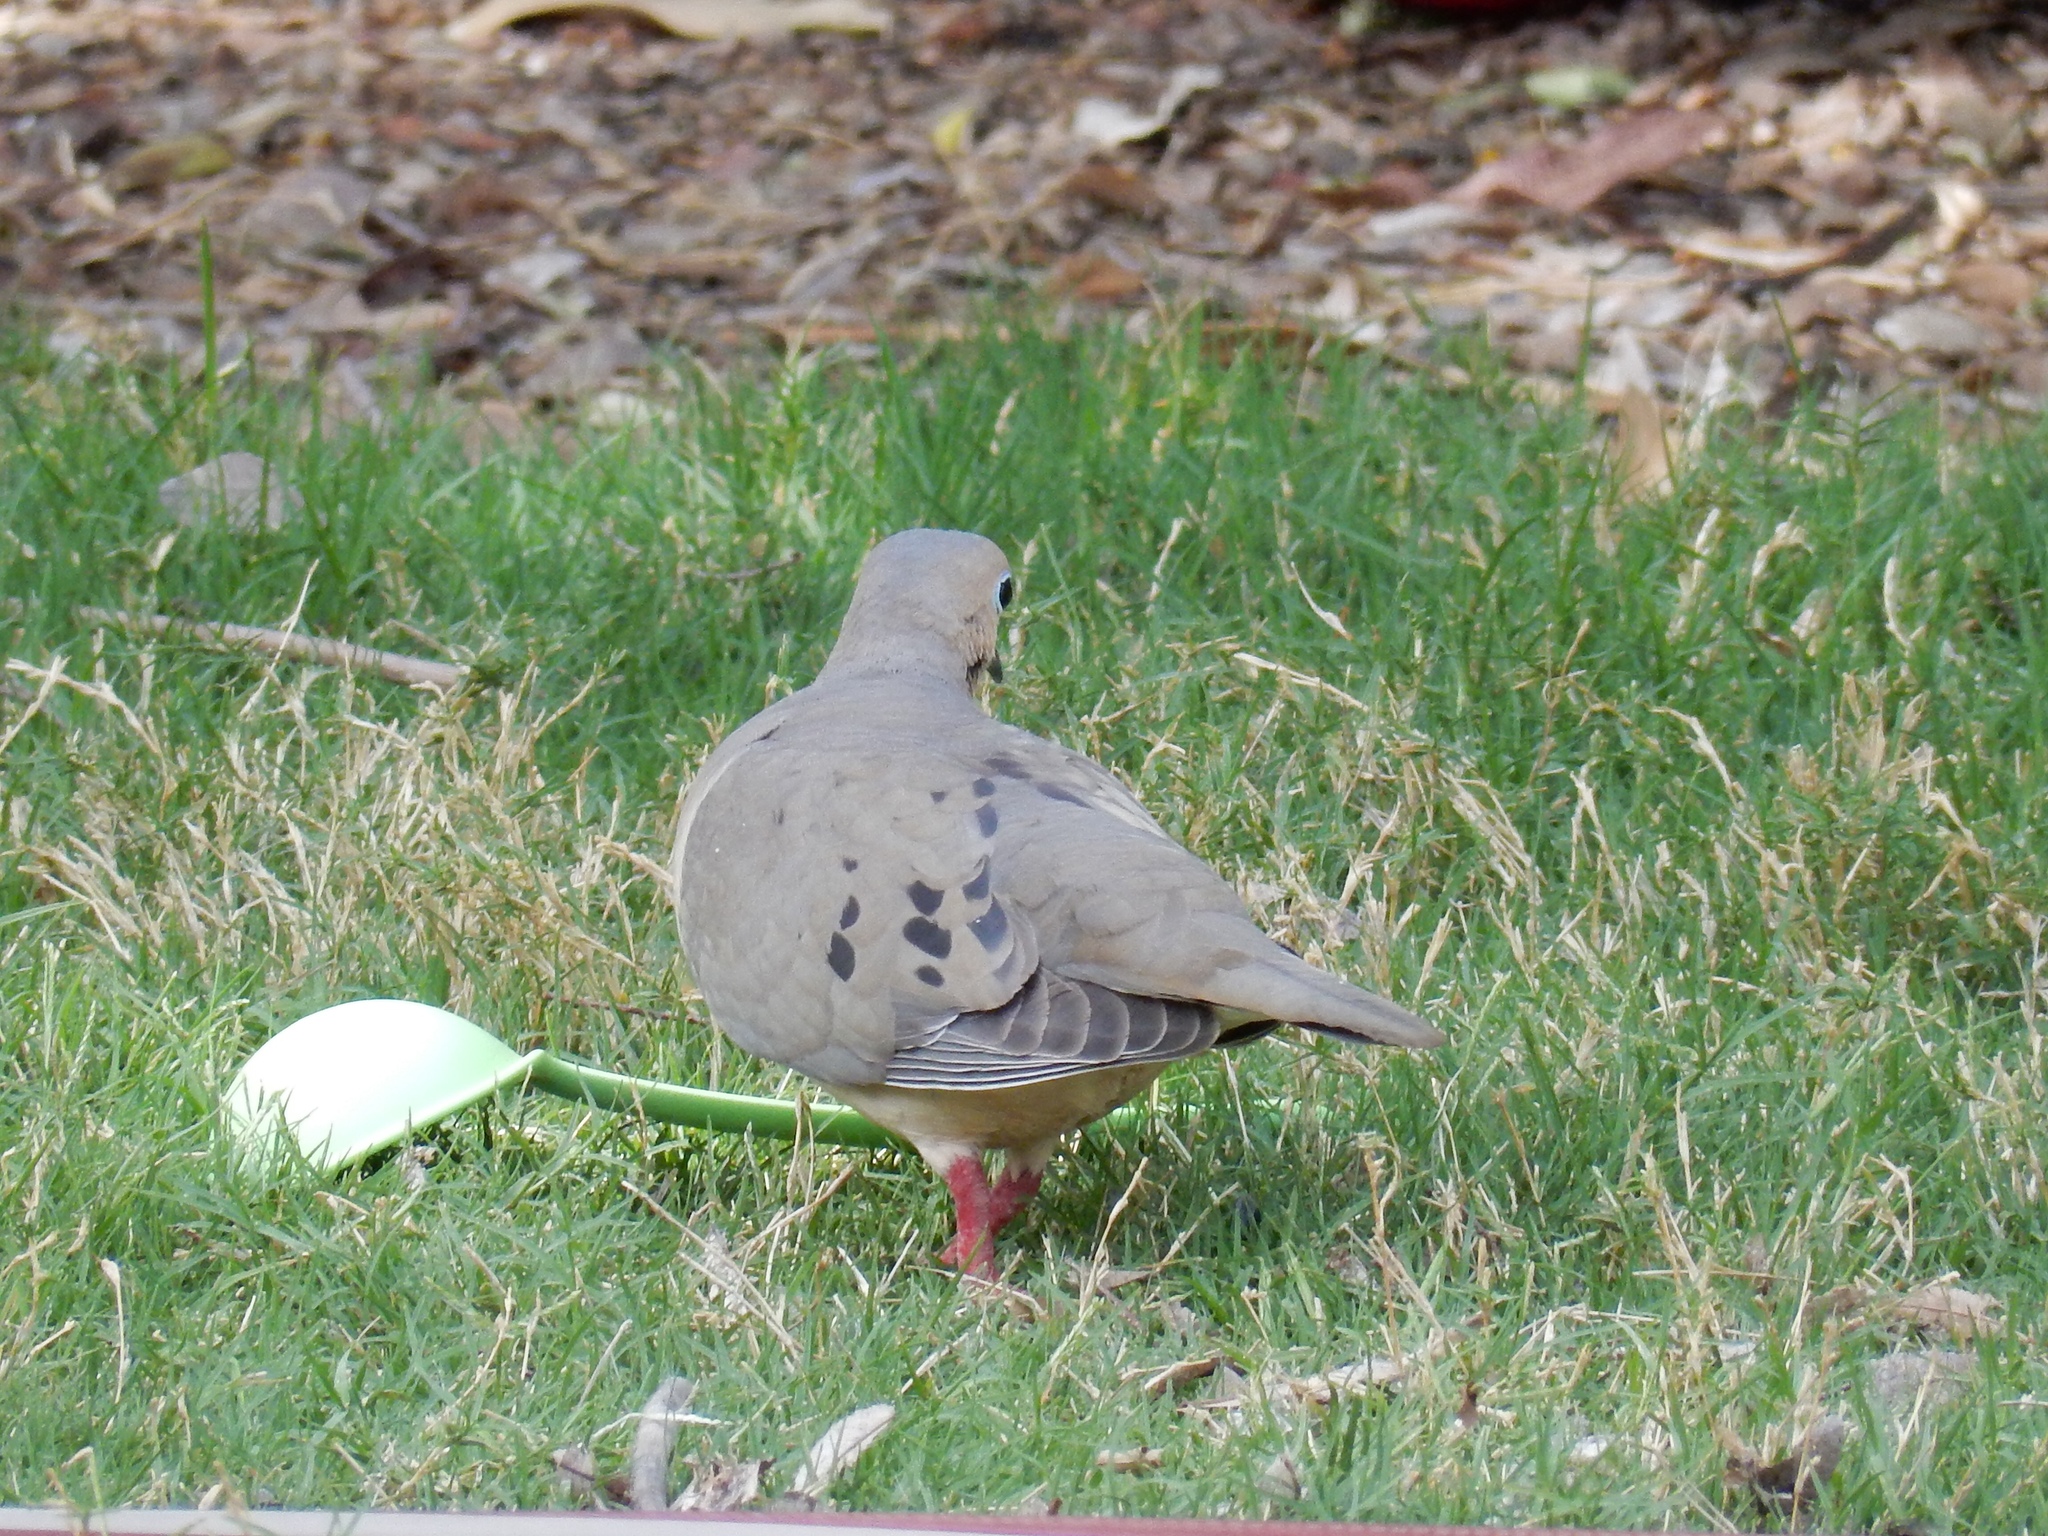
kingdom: Animalia
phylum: Chordata
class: Aves
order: Columbiformes
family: Columbidae
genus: Zenaida
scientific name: Zenaida macroura
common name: Mourning dove
